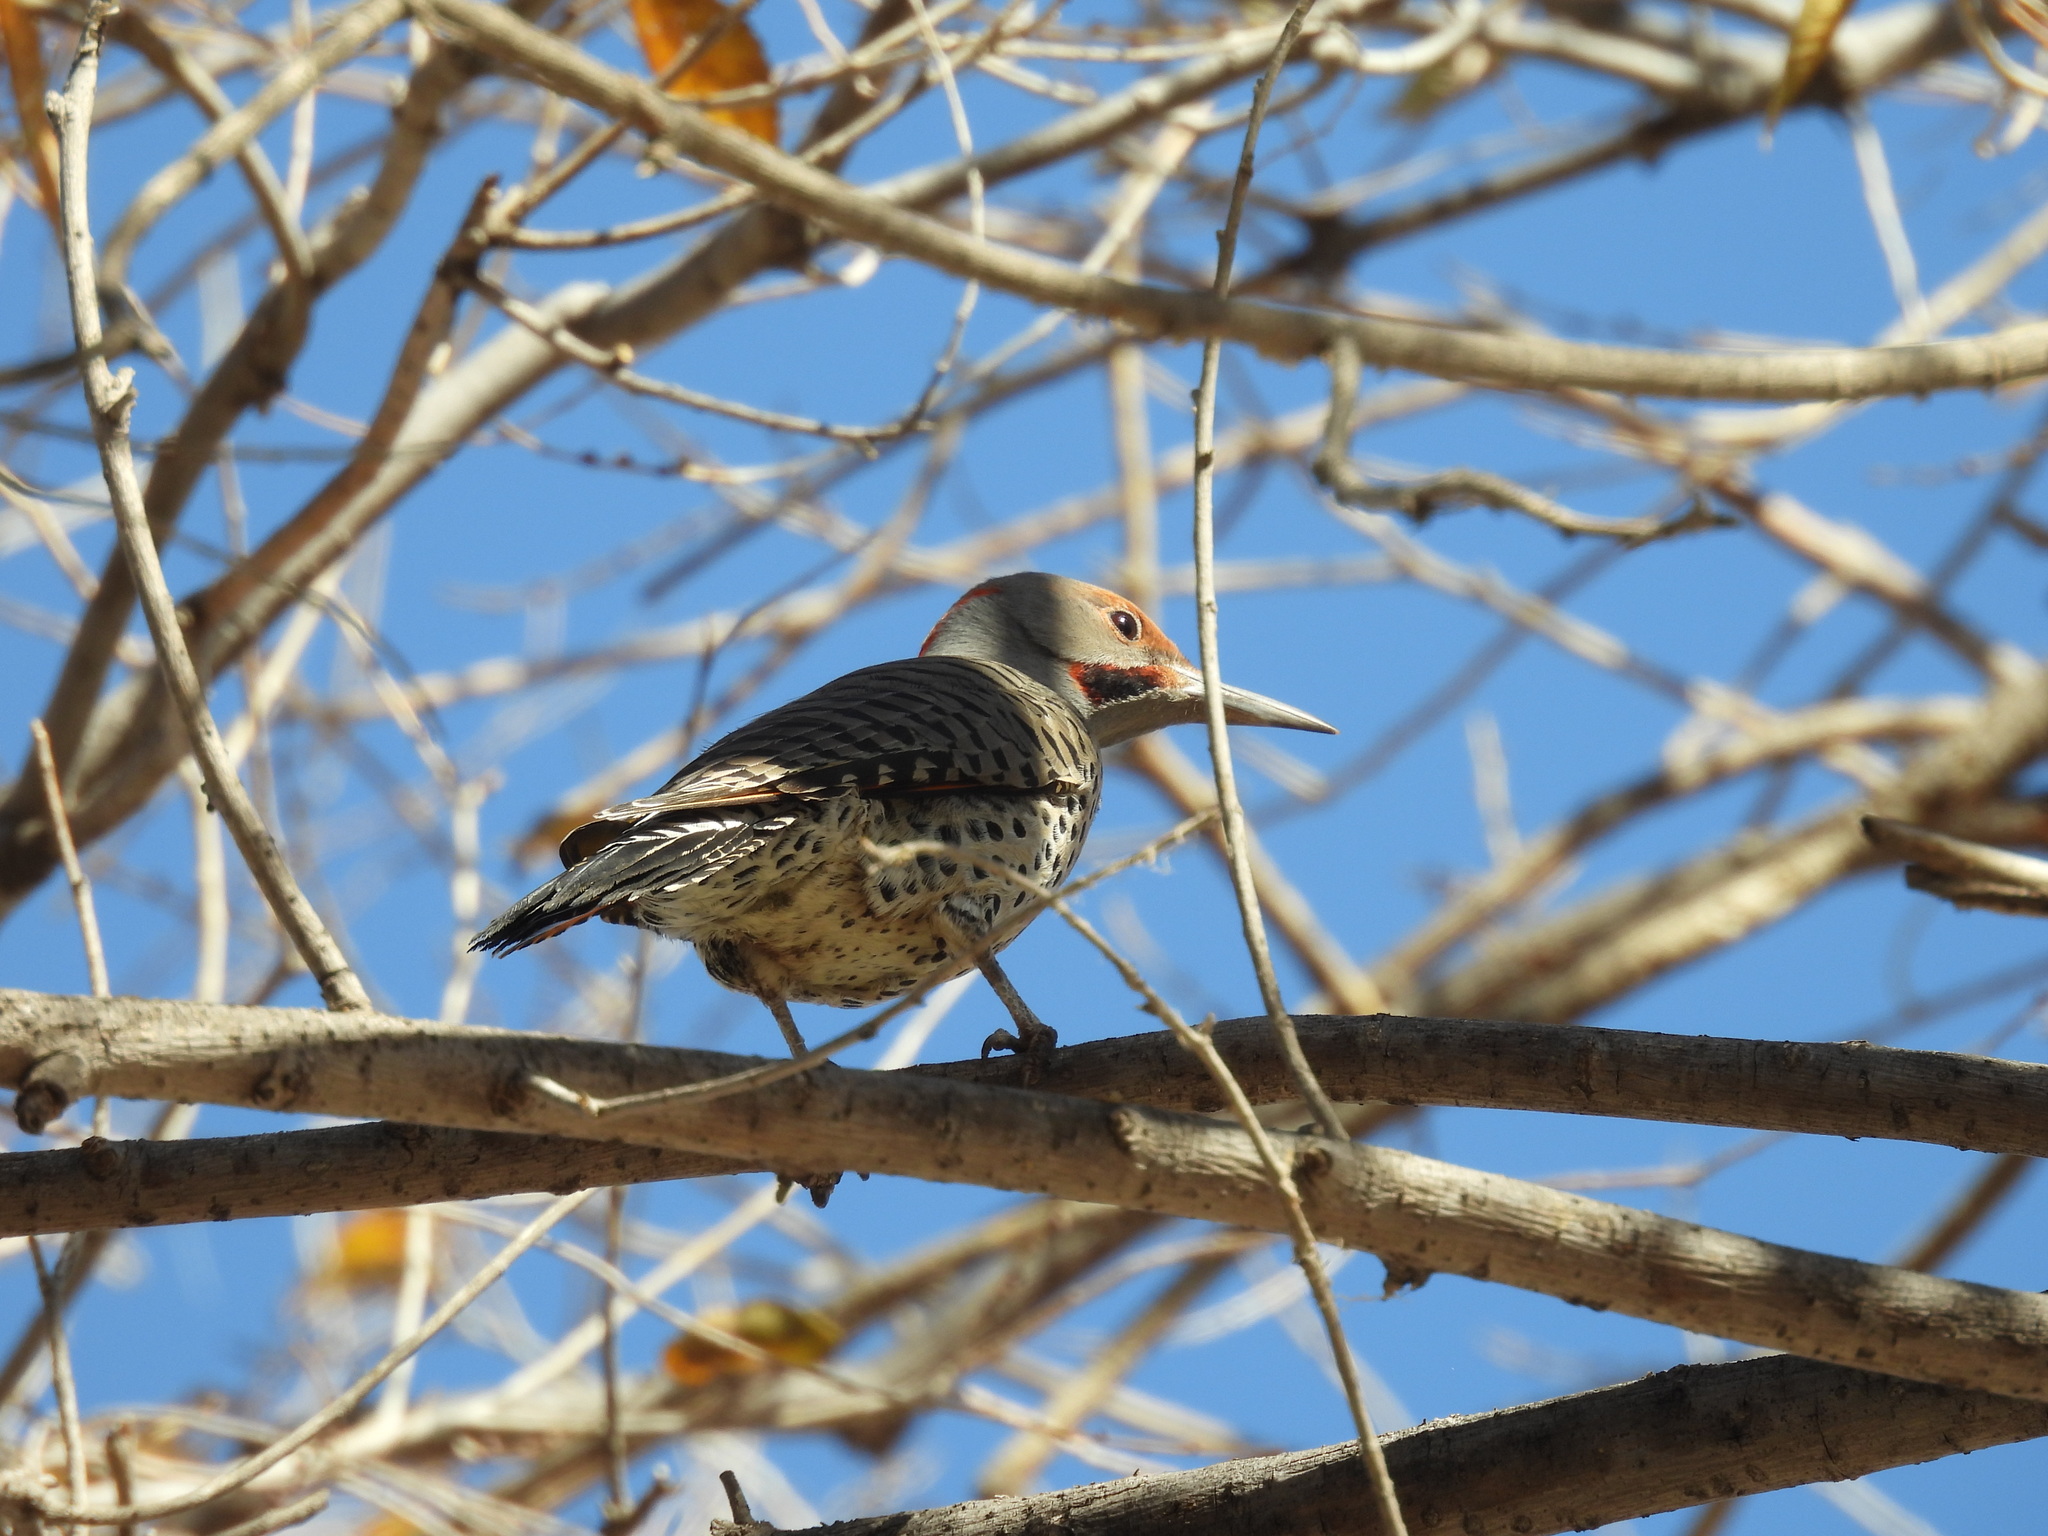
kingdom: Animalia
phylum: Chordata
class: Aves
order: Piciformes
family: Picidae
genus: Colaptes
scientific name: Colaptes
